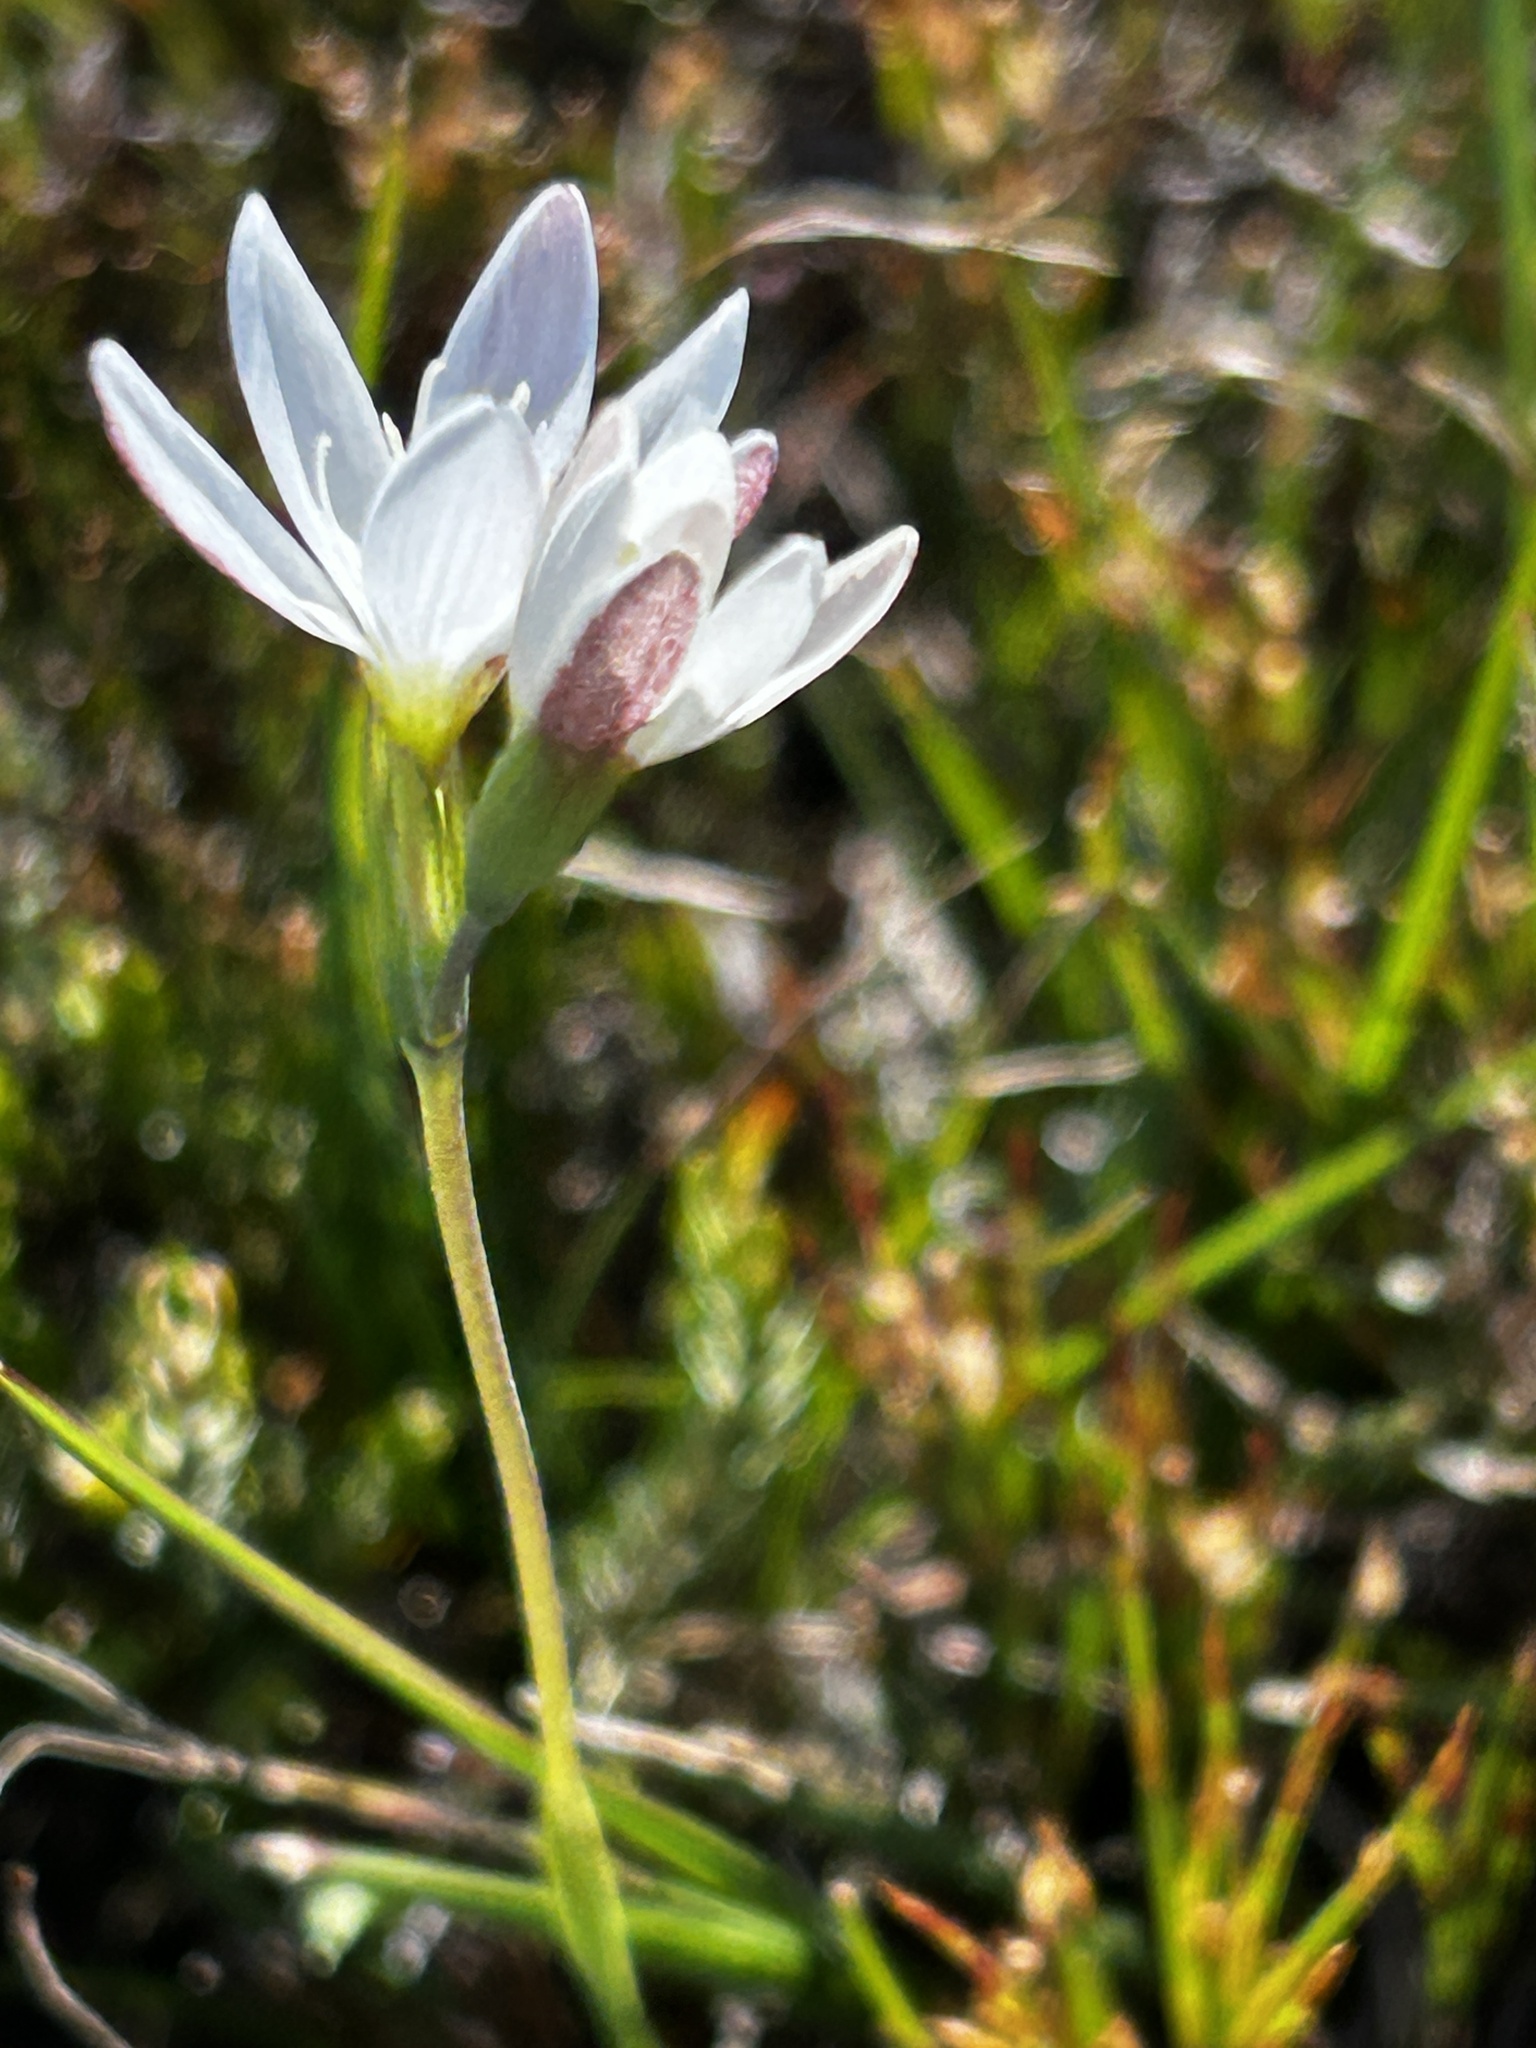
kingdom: Plantae
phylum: Tracheophyta
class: Liliopsida
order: Asparagales
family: Iridaceae
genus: Hesperantha
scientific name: Hesperantha falcata
